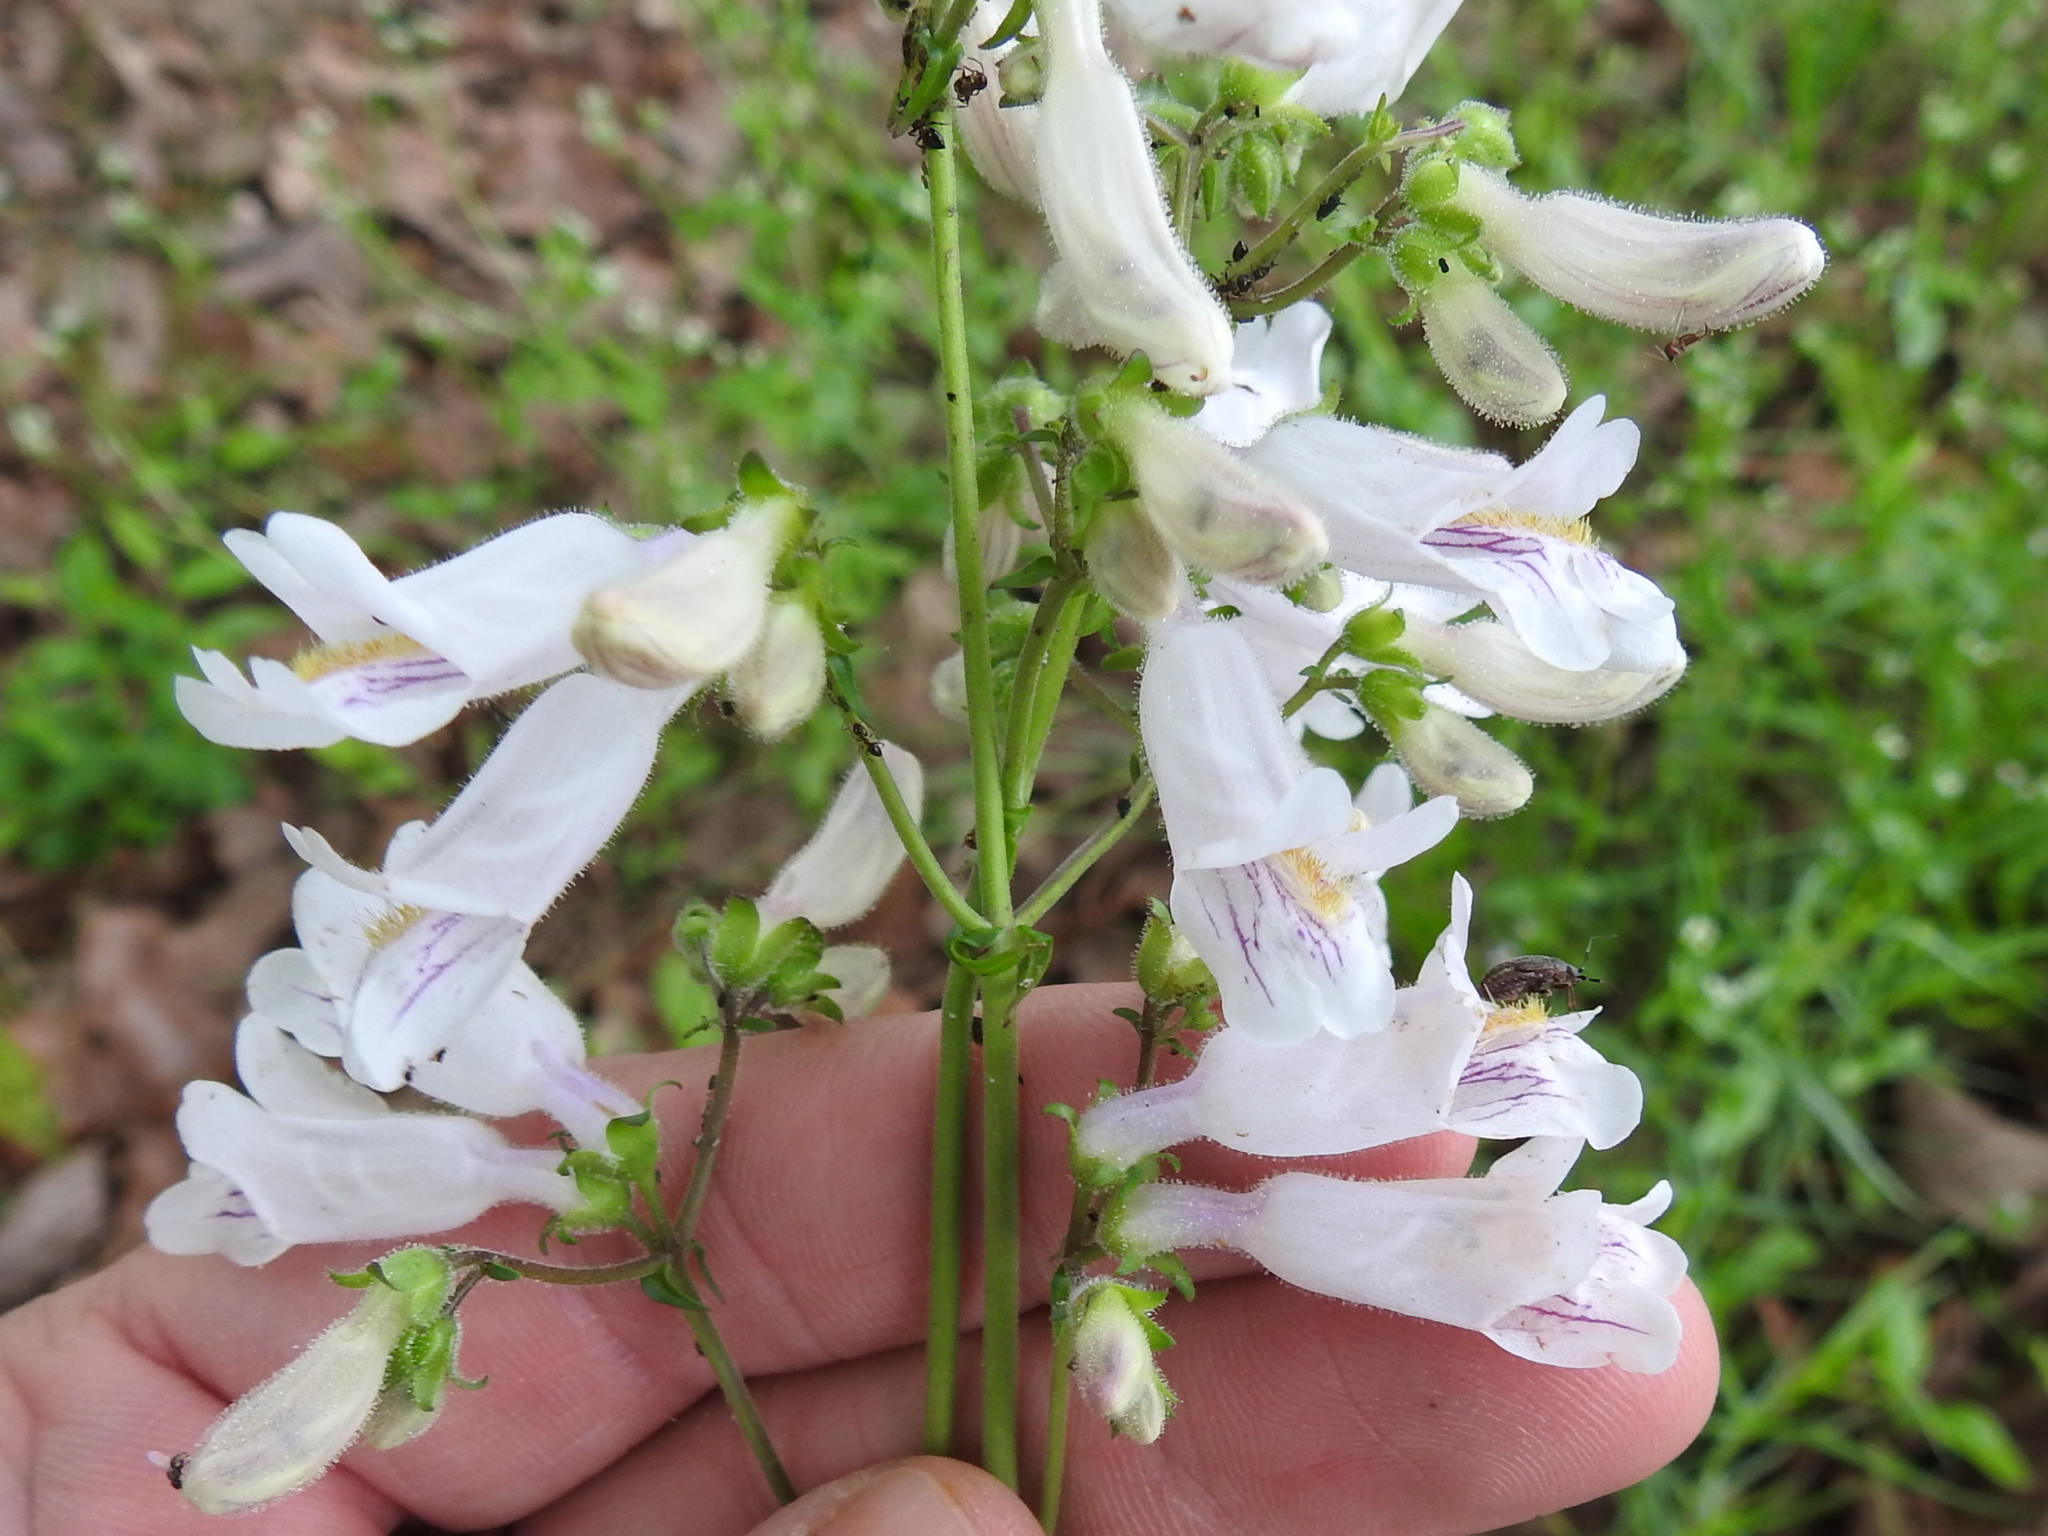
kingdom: Plantae
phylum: Tracheophyta
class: Magnoliopsida
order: Lamiales
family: Plantaginaceae
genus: Penstemon
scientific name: Penstemon laxiflorus
